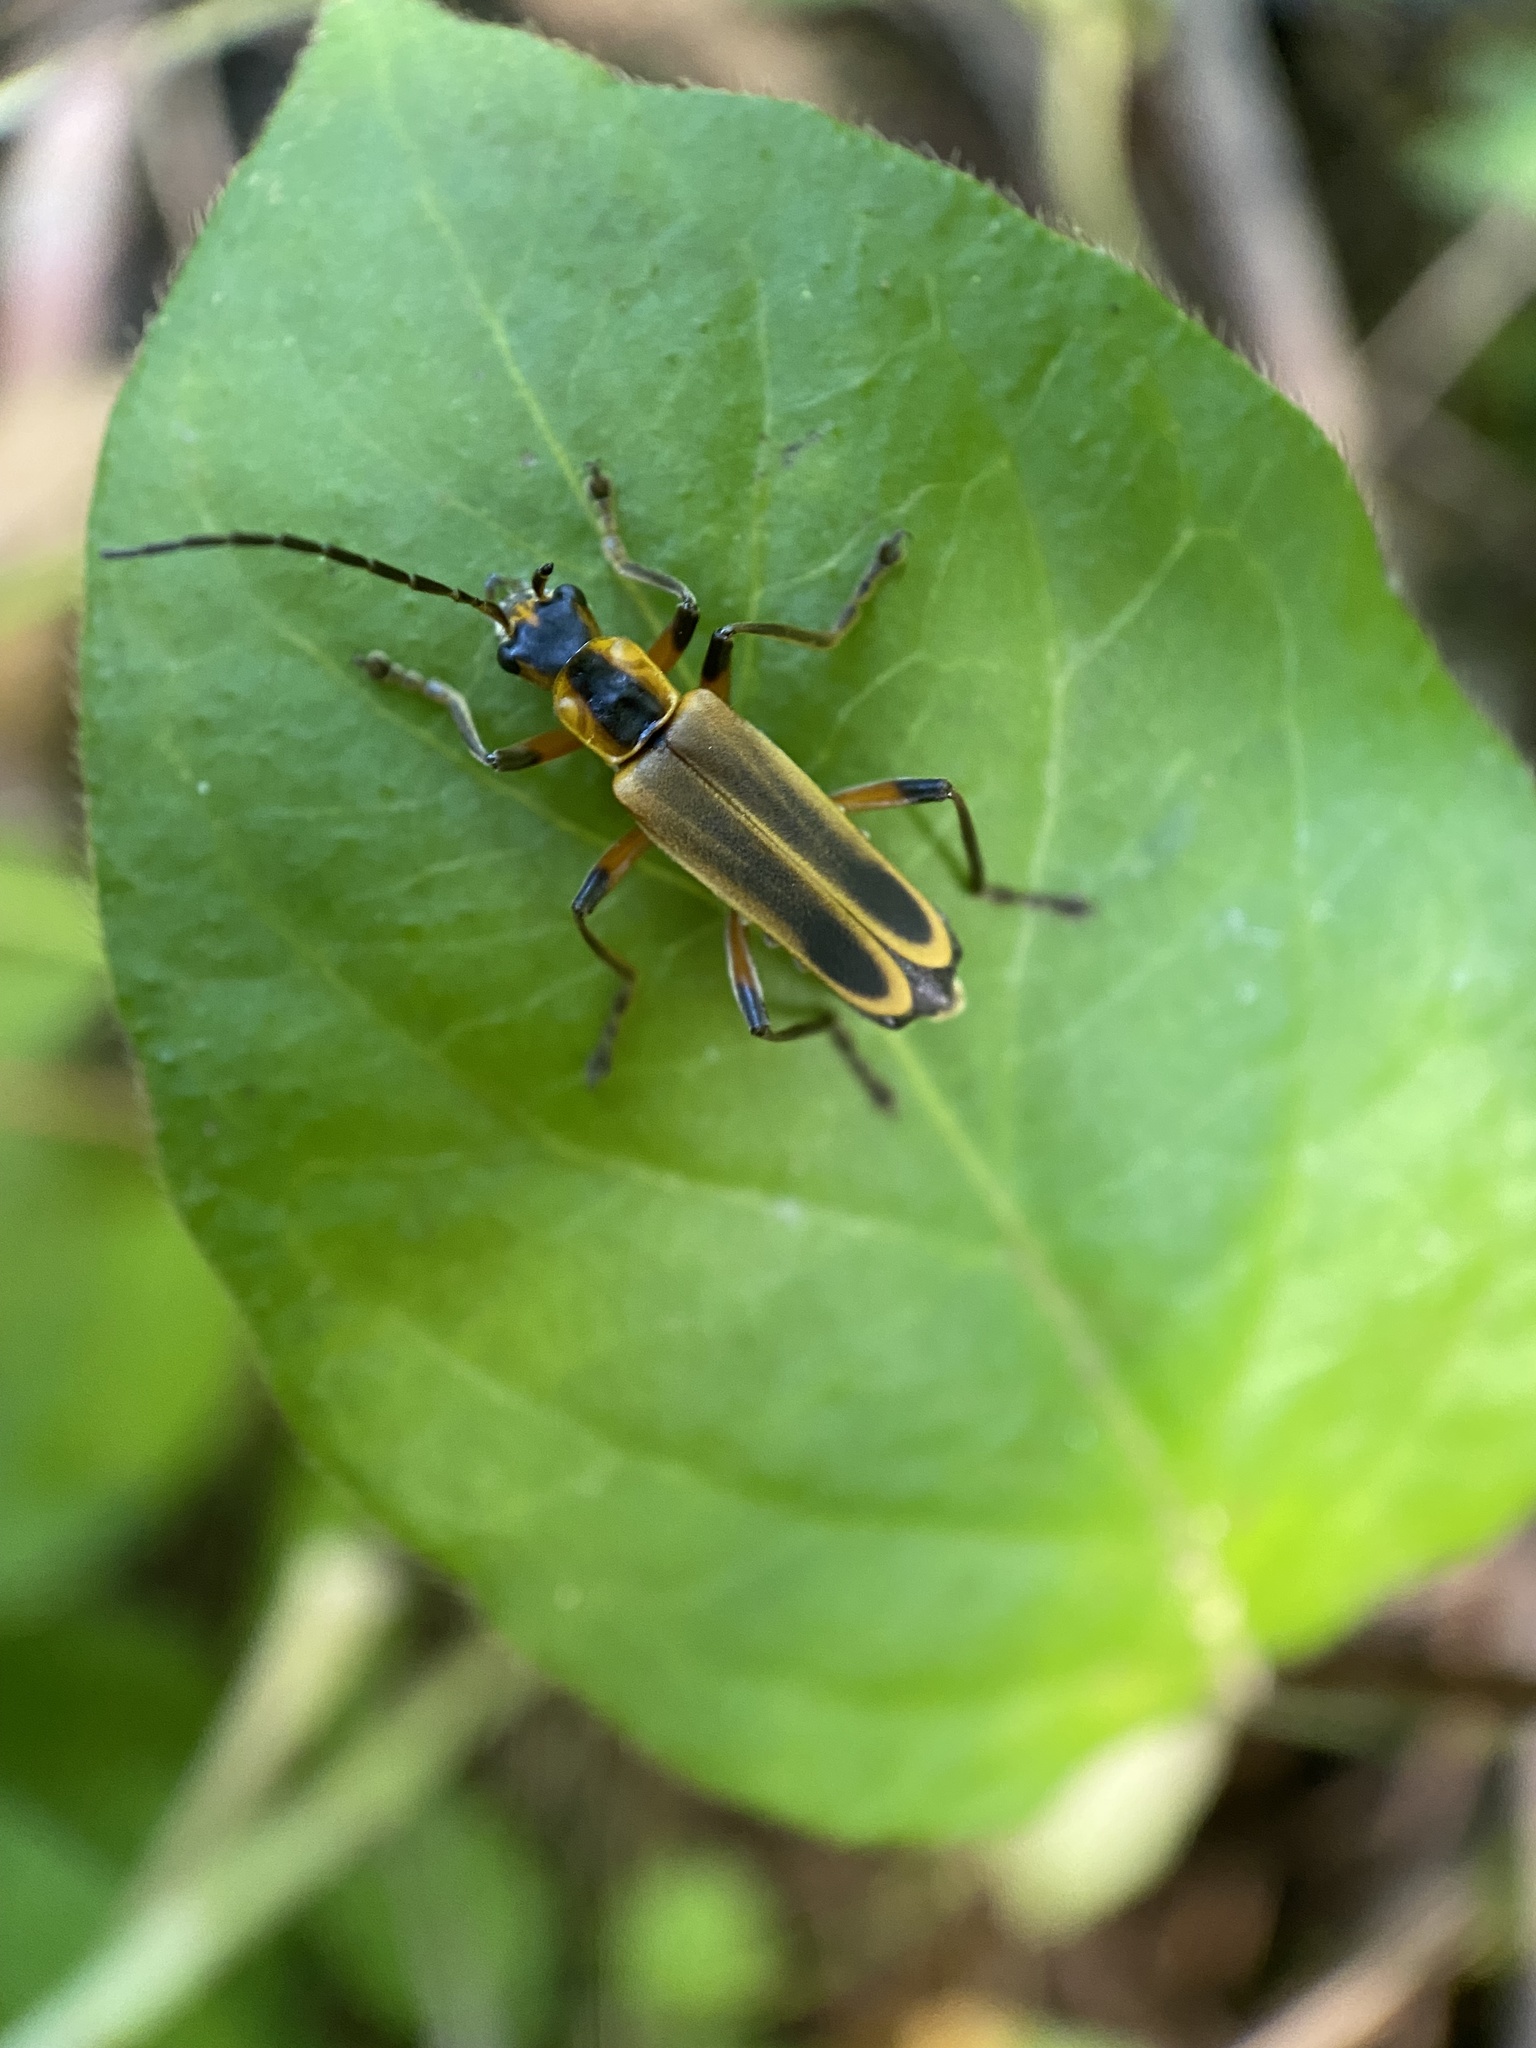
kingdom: Animalia
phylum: Arthropoda
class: Insecta
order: Coleoptera
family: Cantharidae
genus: Chauliognathus
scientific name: Chauliognathus marginatus
